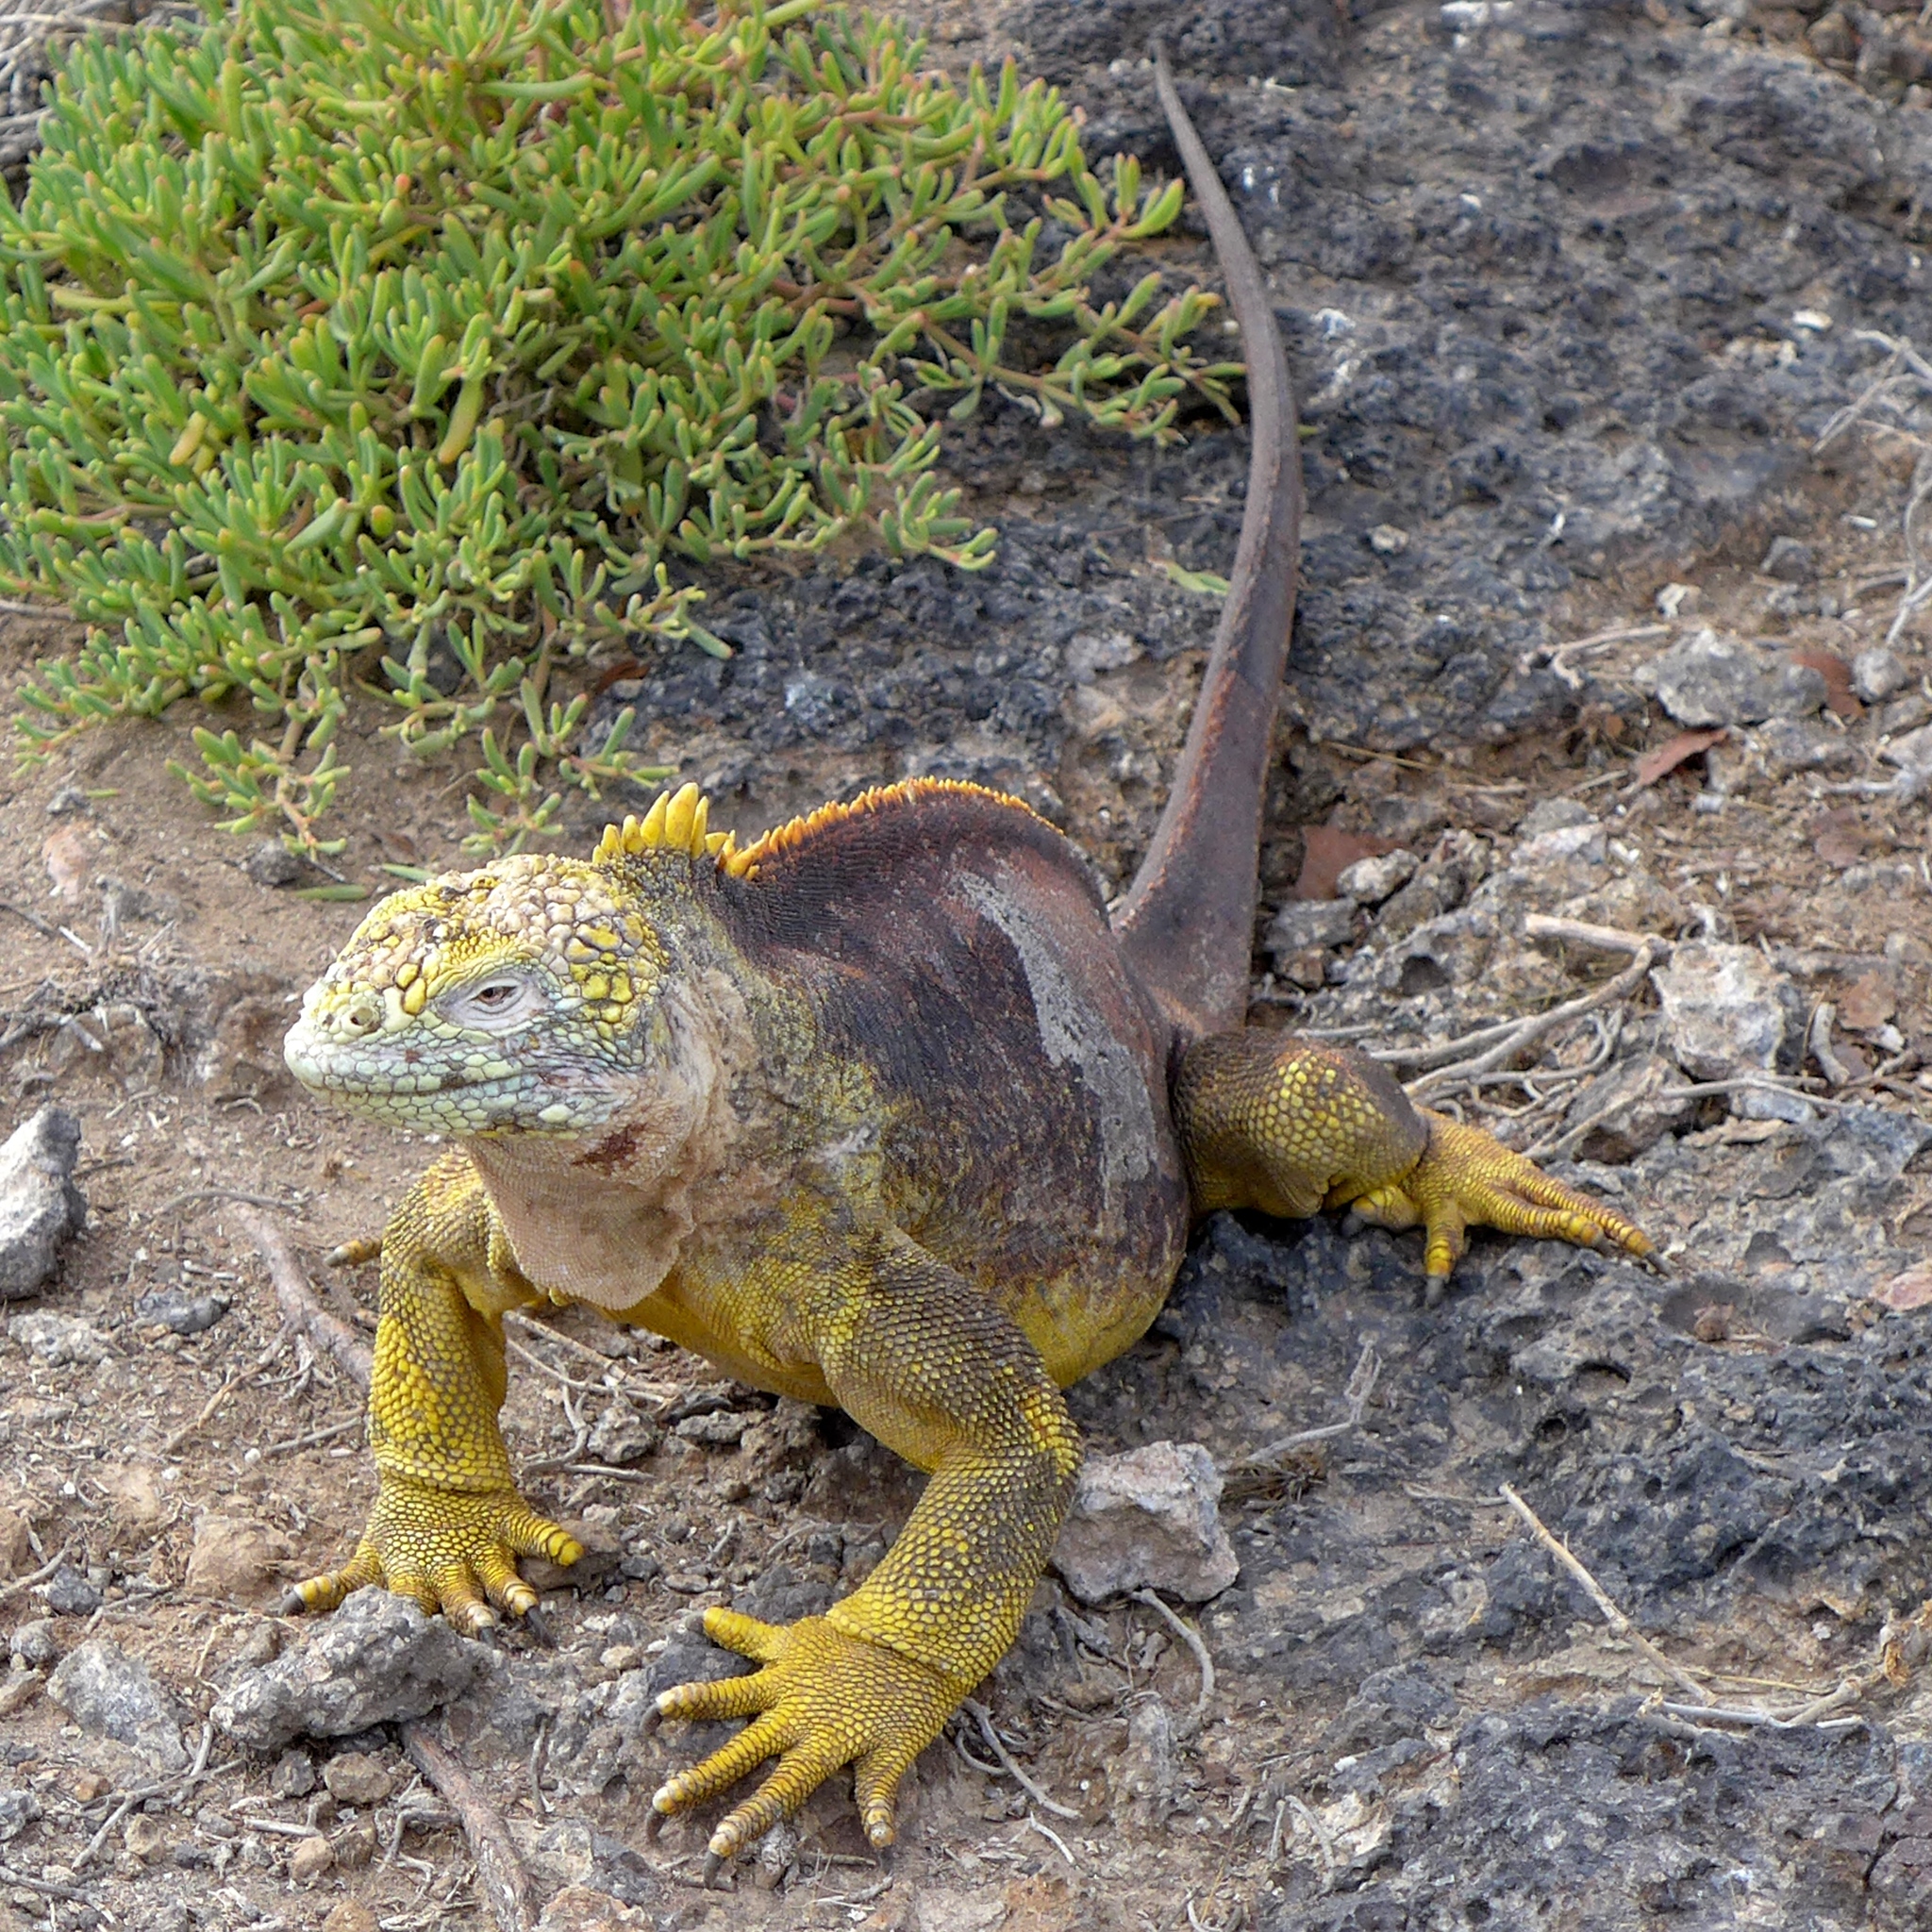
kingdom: Animalia
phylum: Chordata
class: Squamata
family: Iguanidae
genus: Conolophus
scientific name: Conolophus subcristatus
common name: Galapagos land iguana
